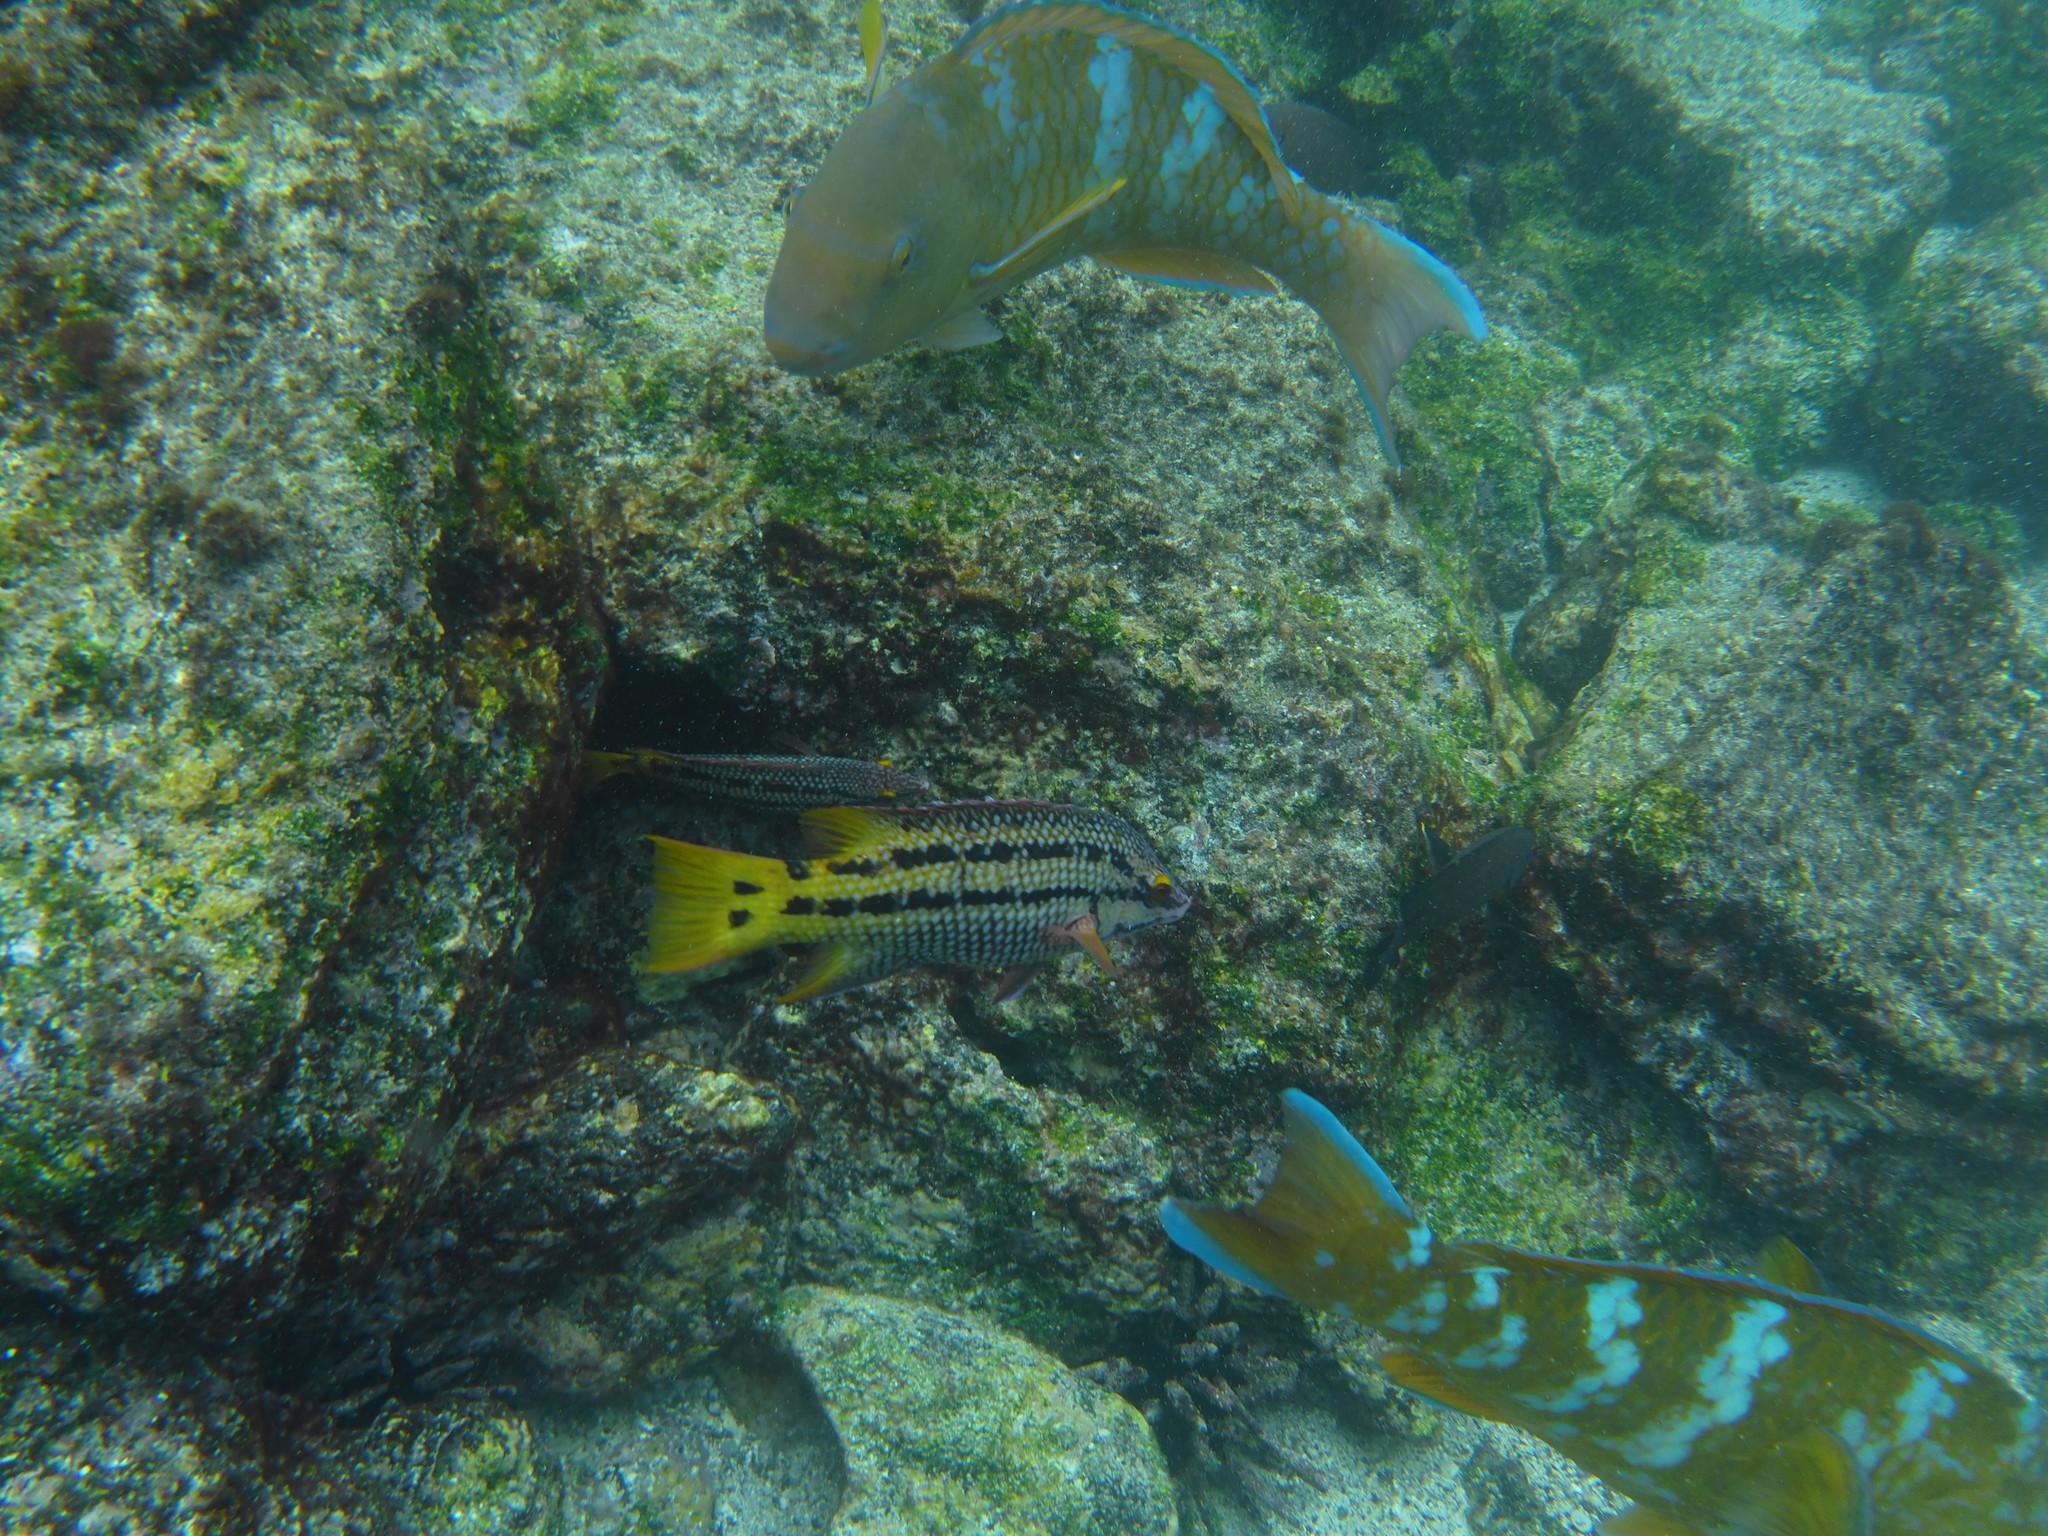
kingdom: Animalia
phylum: Chordata
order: Perciformes
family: Labridae
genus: Bodianus
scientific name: Bodianus diplotaenia
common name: Mexican hogfish
